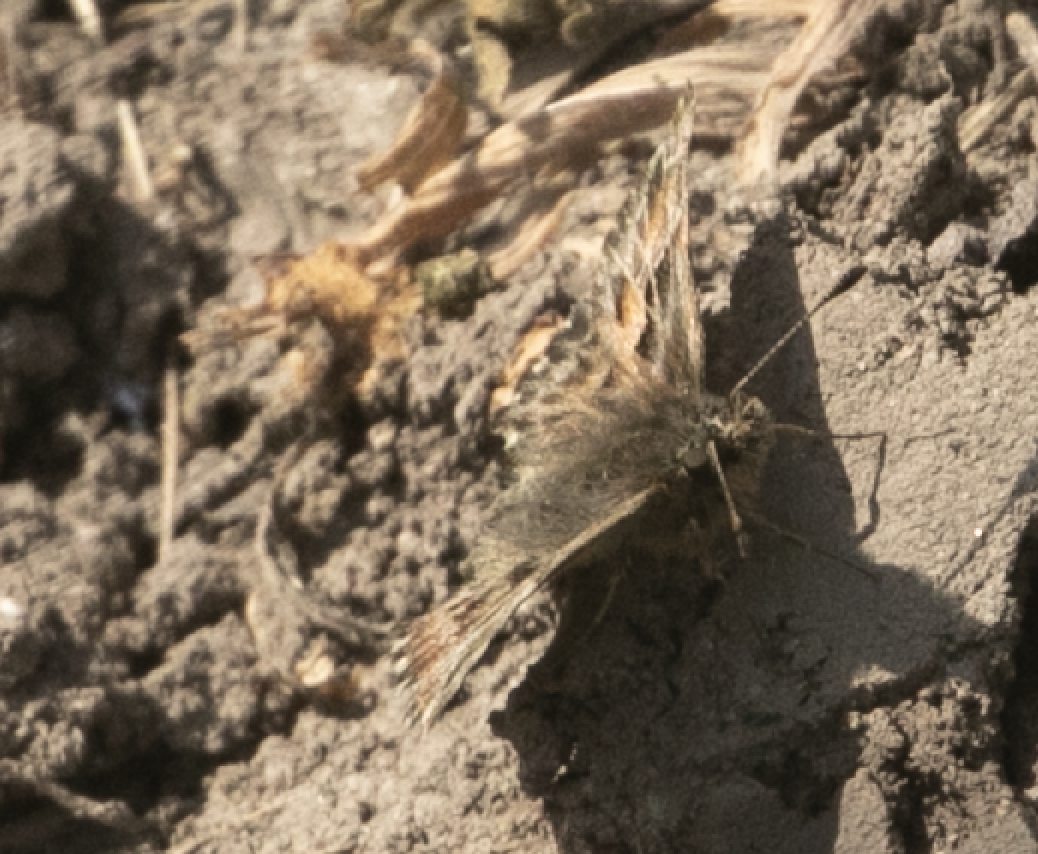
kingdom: Animalia
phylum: Arthropoda
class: Insecta
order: Lepidoptera
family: Hesperiidae
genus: Carcharodus
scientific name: Carcharodus alceae
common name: Mallow skipper
